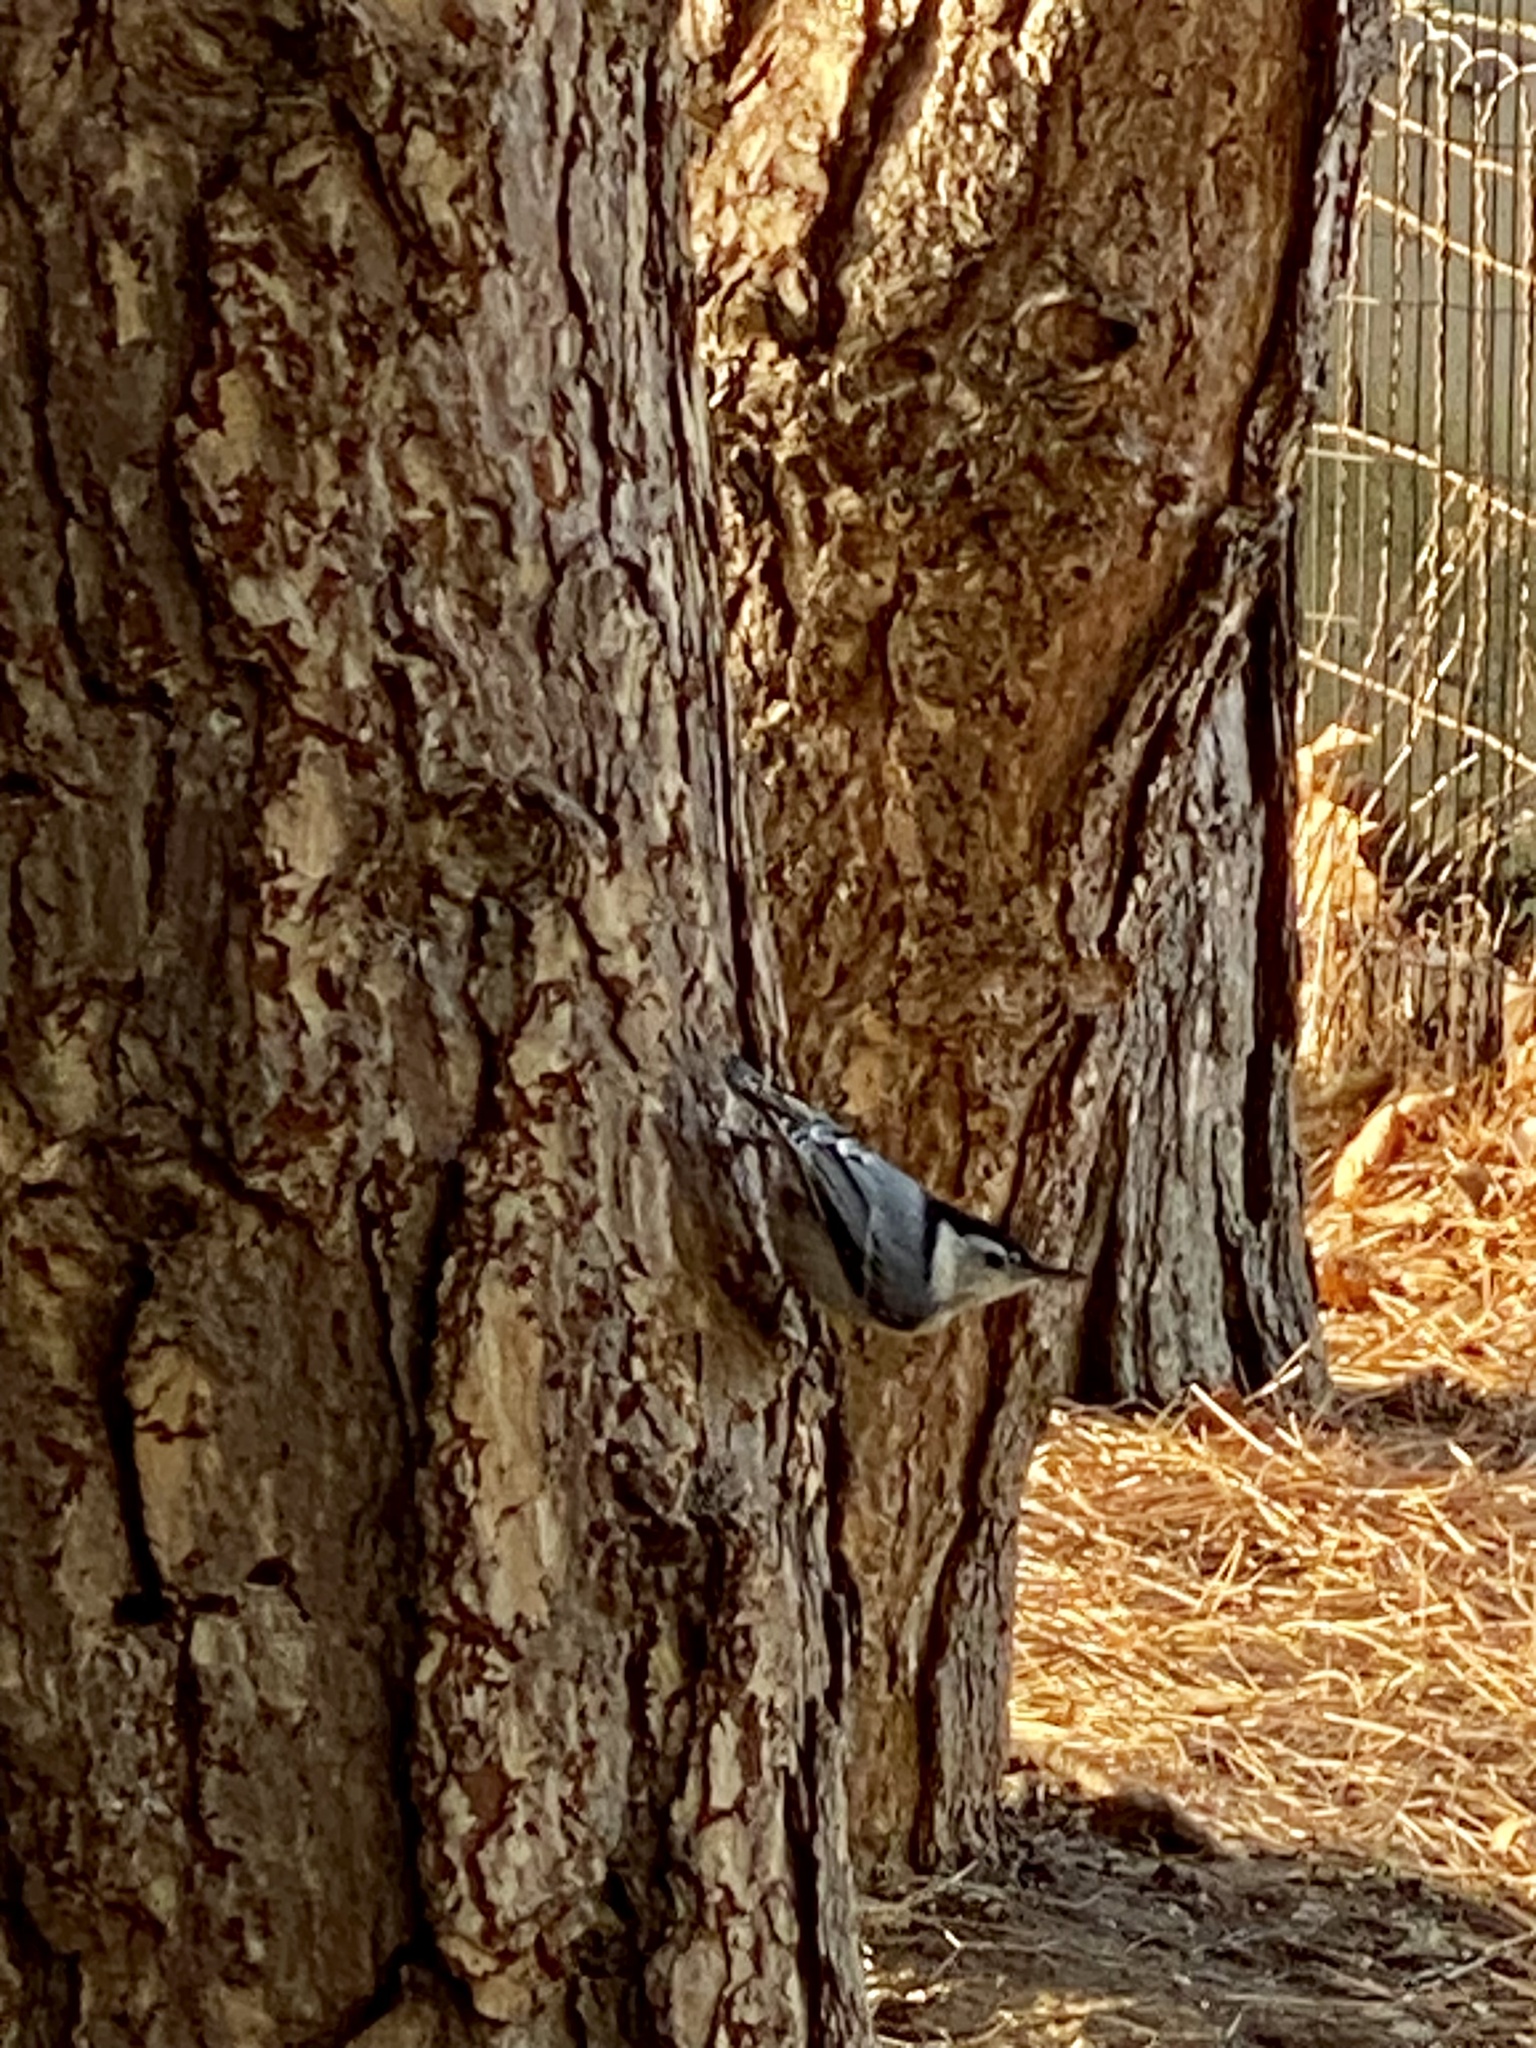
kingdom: Animalia
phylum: Chordata
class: Aves
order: Passeriformes
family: Sittidae
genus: Sitta
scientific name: Sitta carolinensis
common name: White-breasted nuthatch
